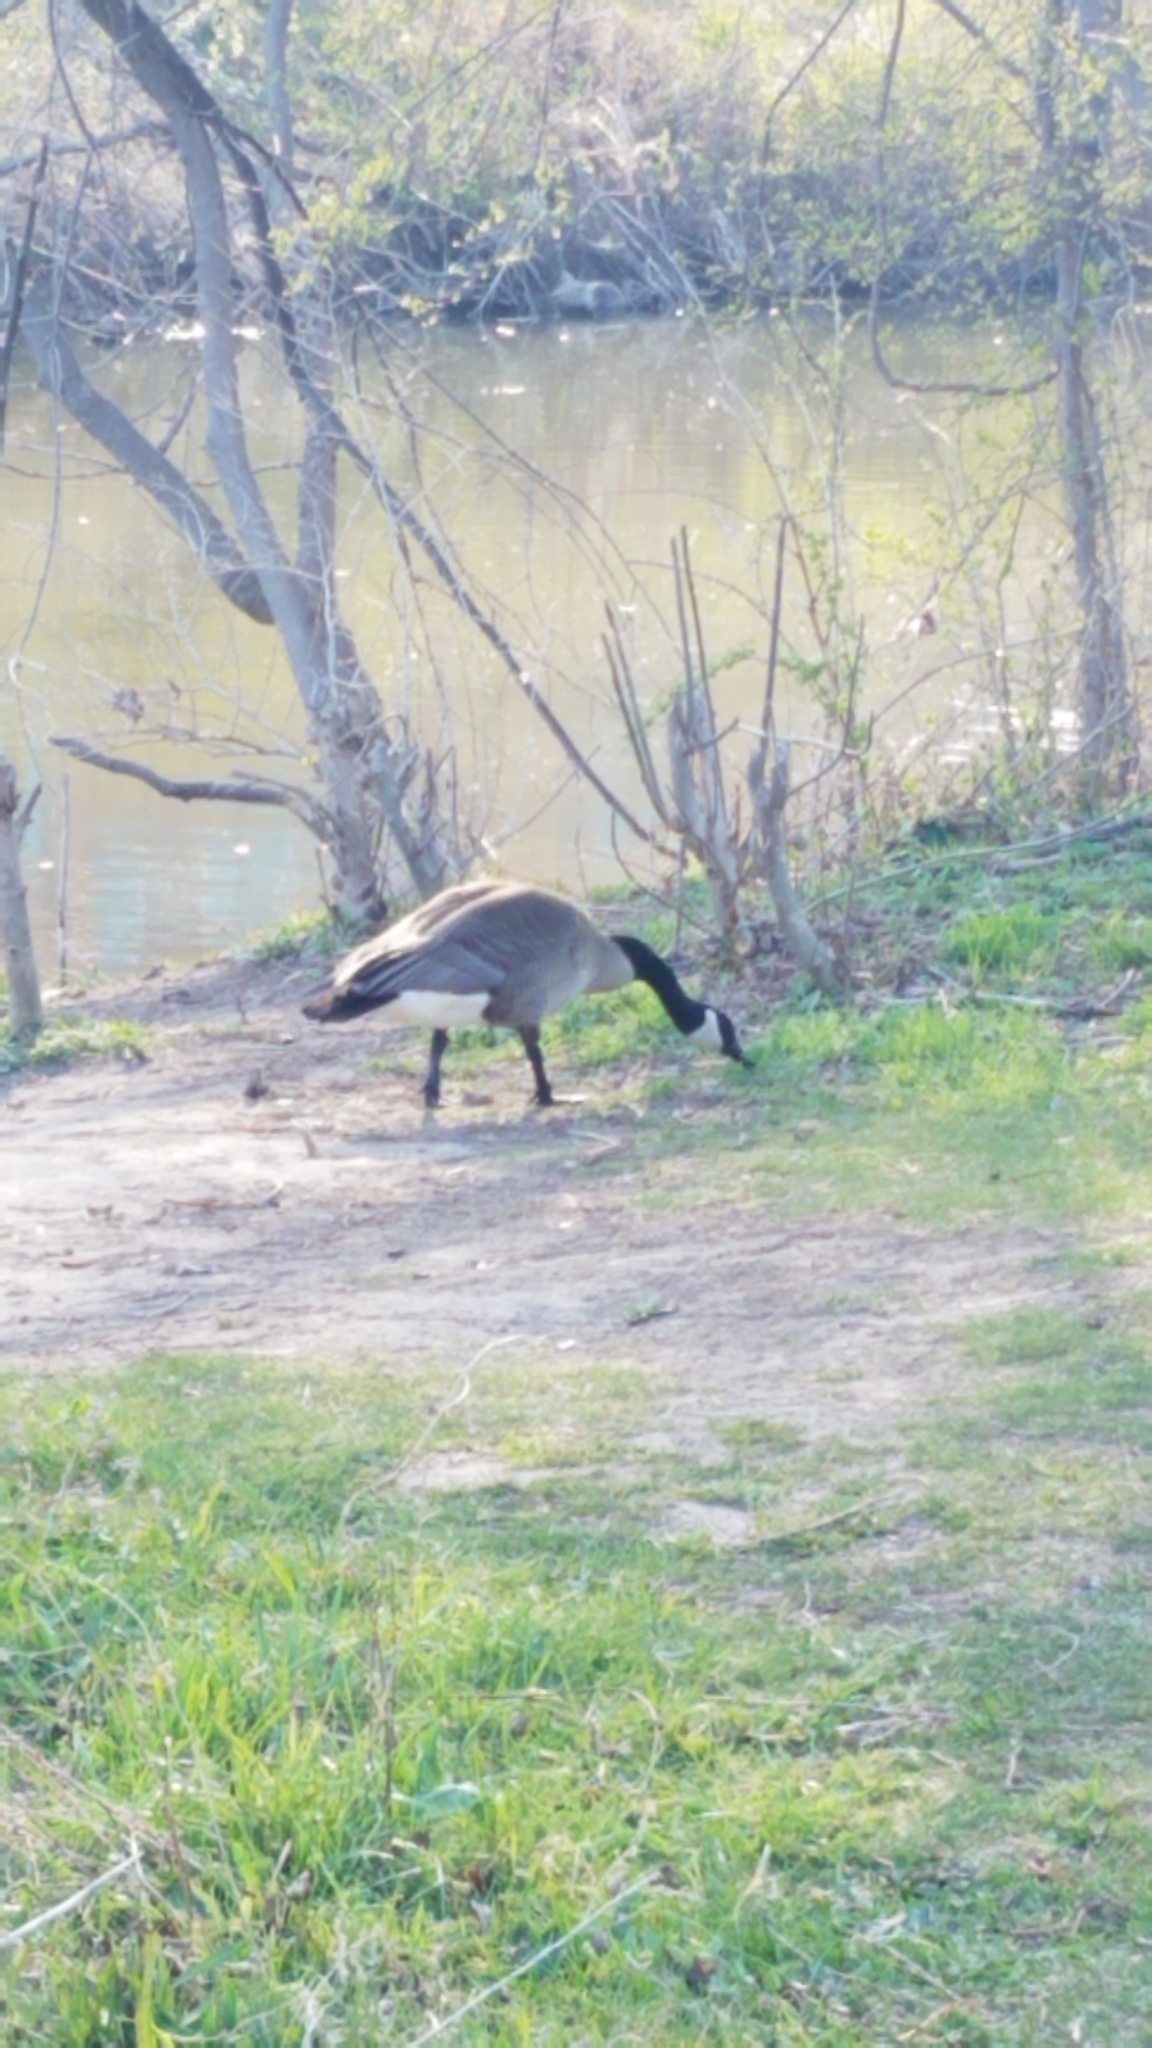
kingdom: Animalia
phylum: Chordata
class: Aves
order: Anseriformes
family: Anatidae
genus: Branta
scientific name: Branta canadensis
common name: Canada goose
